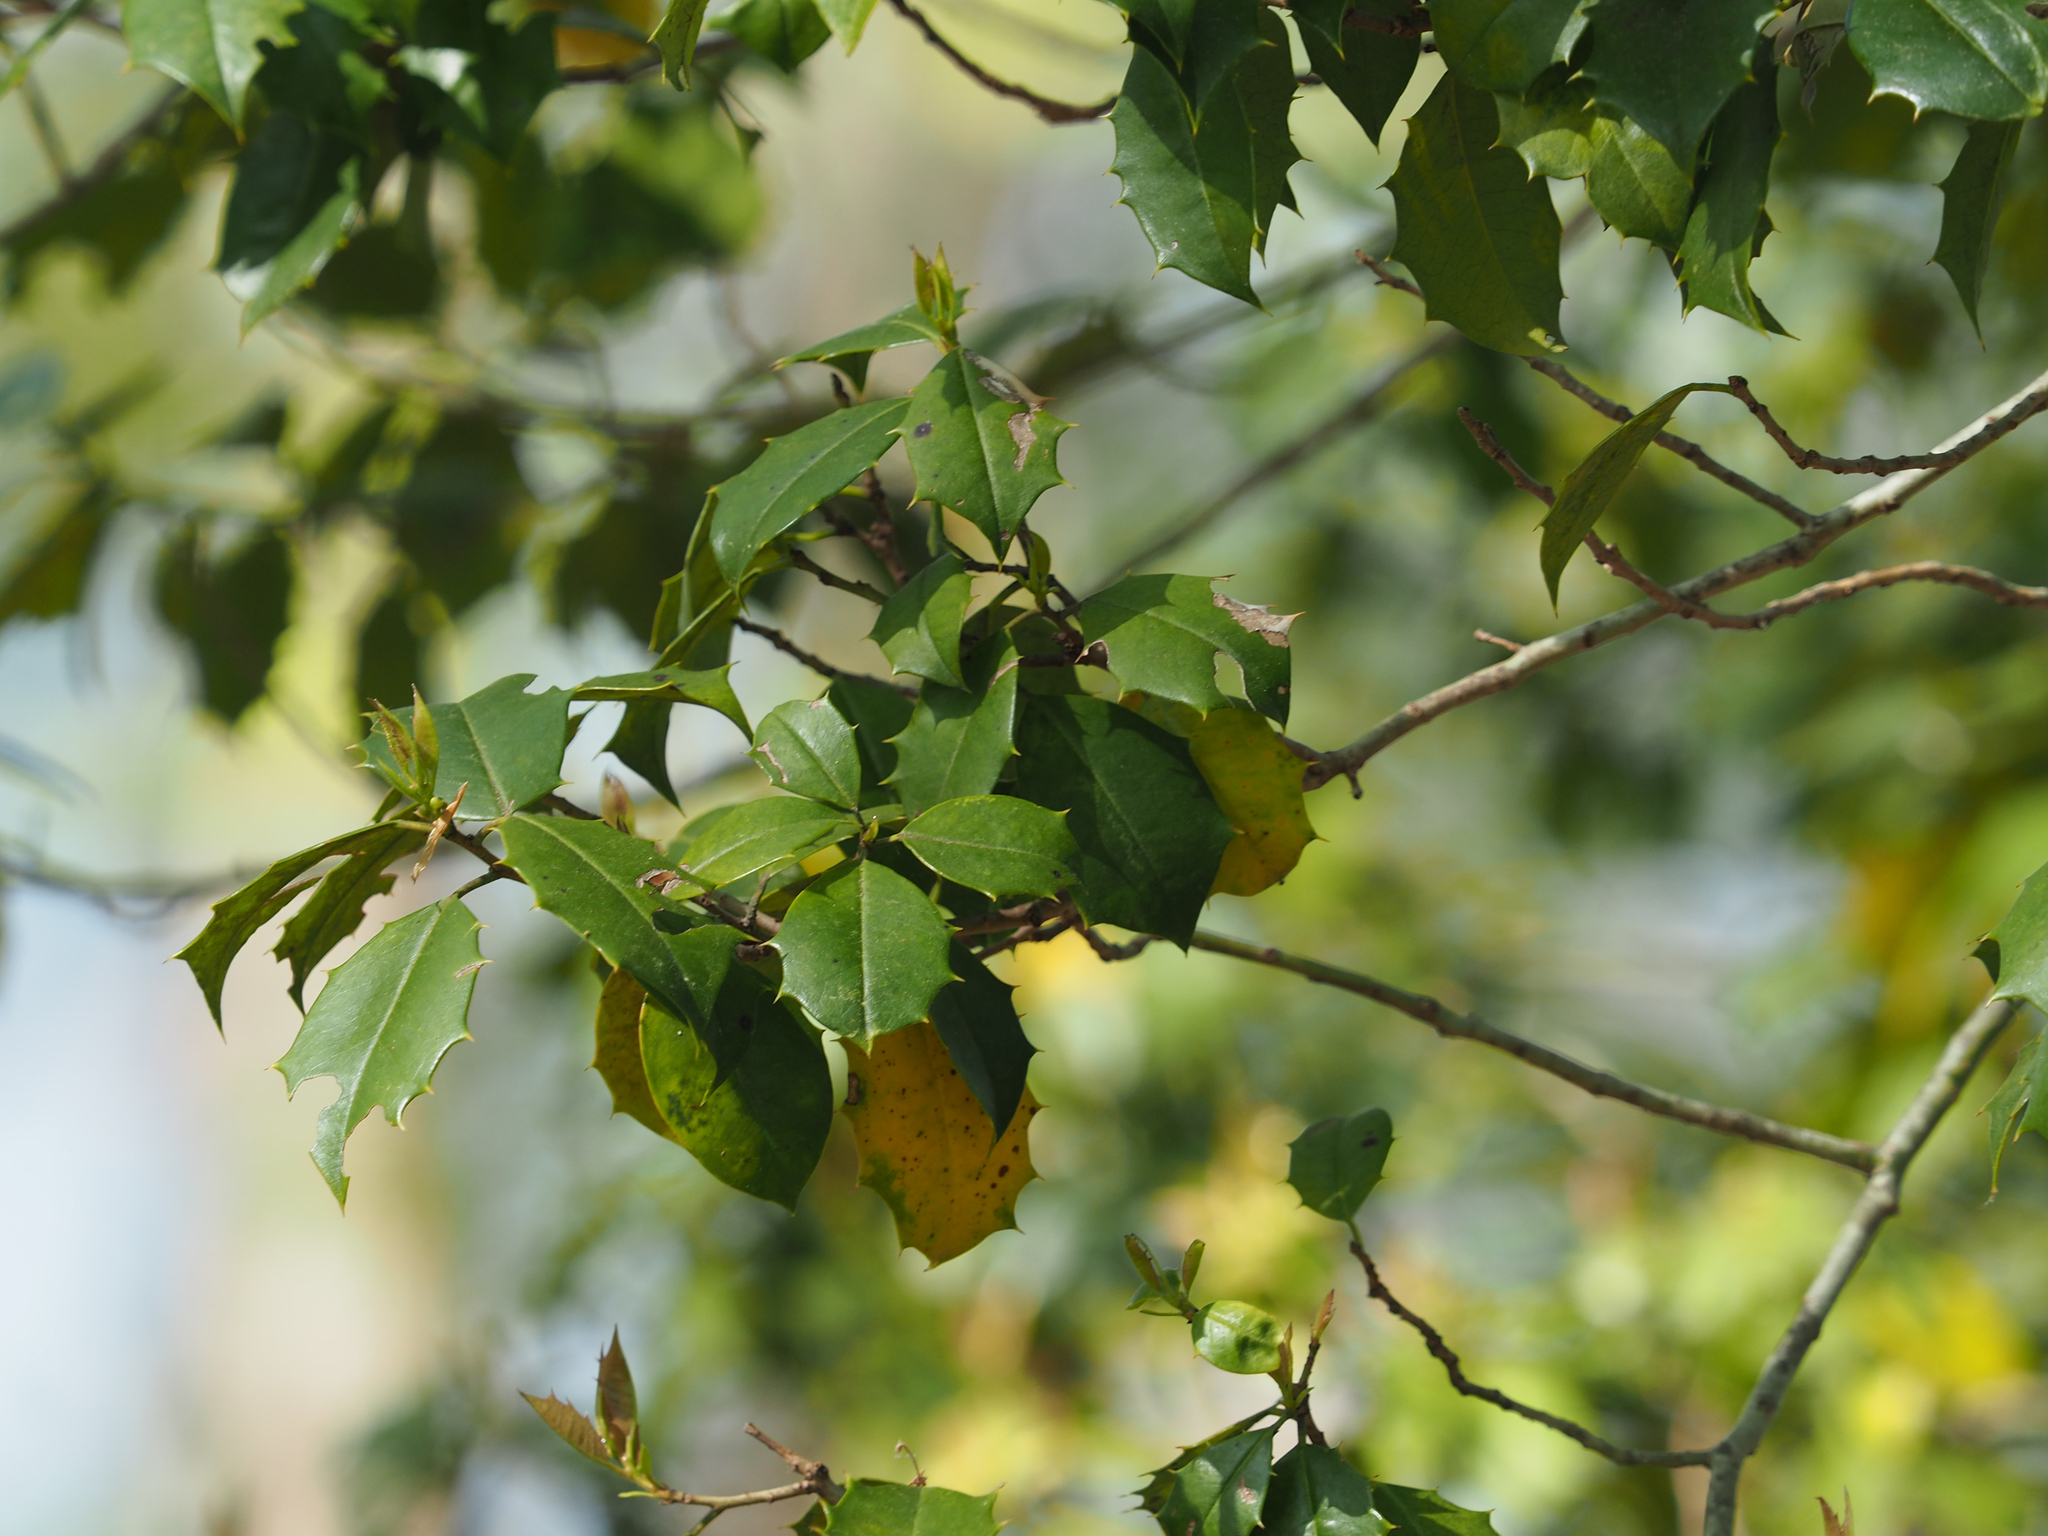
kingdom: Plantae
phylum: Tracheophyta
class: Magnoliopsida
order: Aquifoliales
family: Aquifoliaceae
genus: Ilex
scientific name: Ilex opaca
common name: American holly
